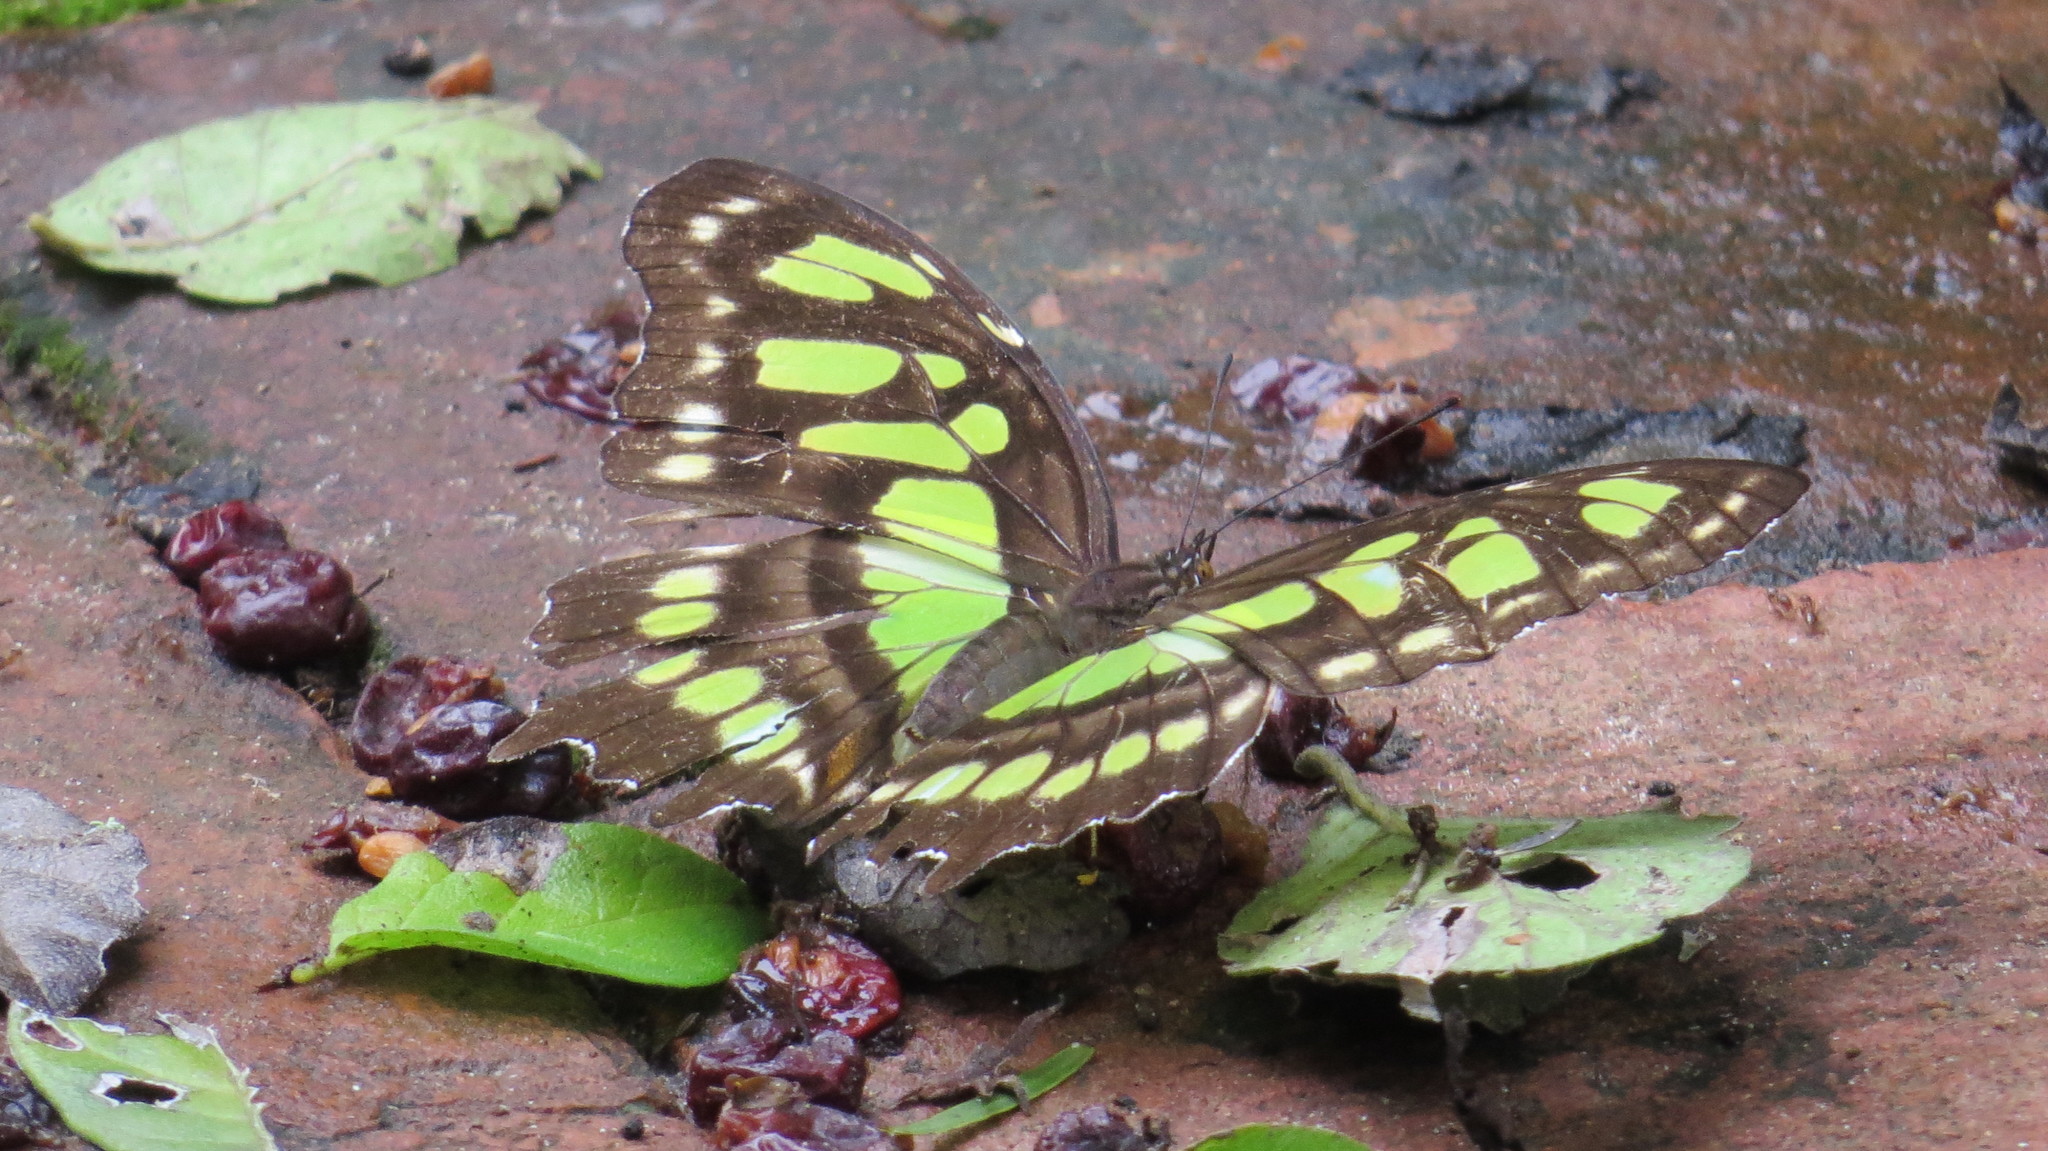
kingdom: Animalia
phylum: Arthropoda
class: Insecta
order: Lepidoptera
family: Nymphalidae
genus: Siproeta
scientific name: Siproeta stelenes
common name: Malachite
